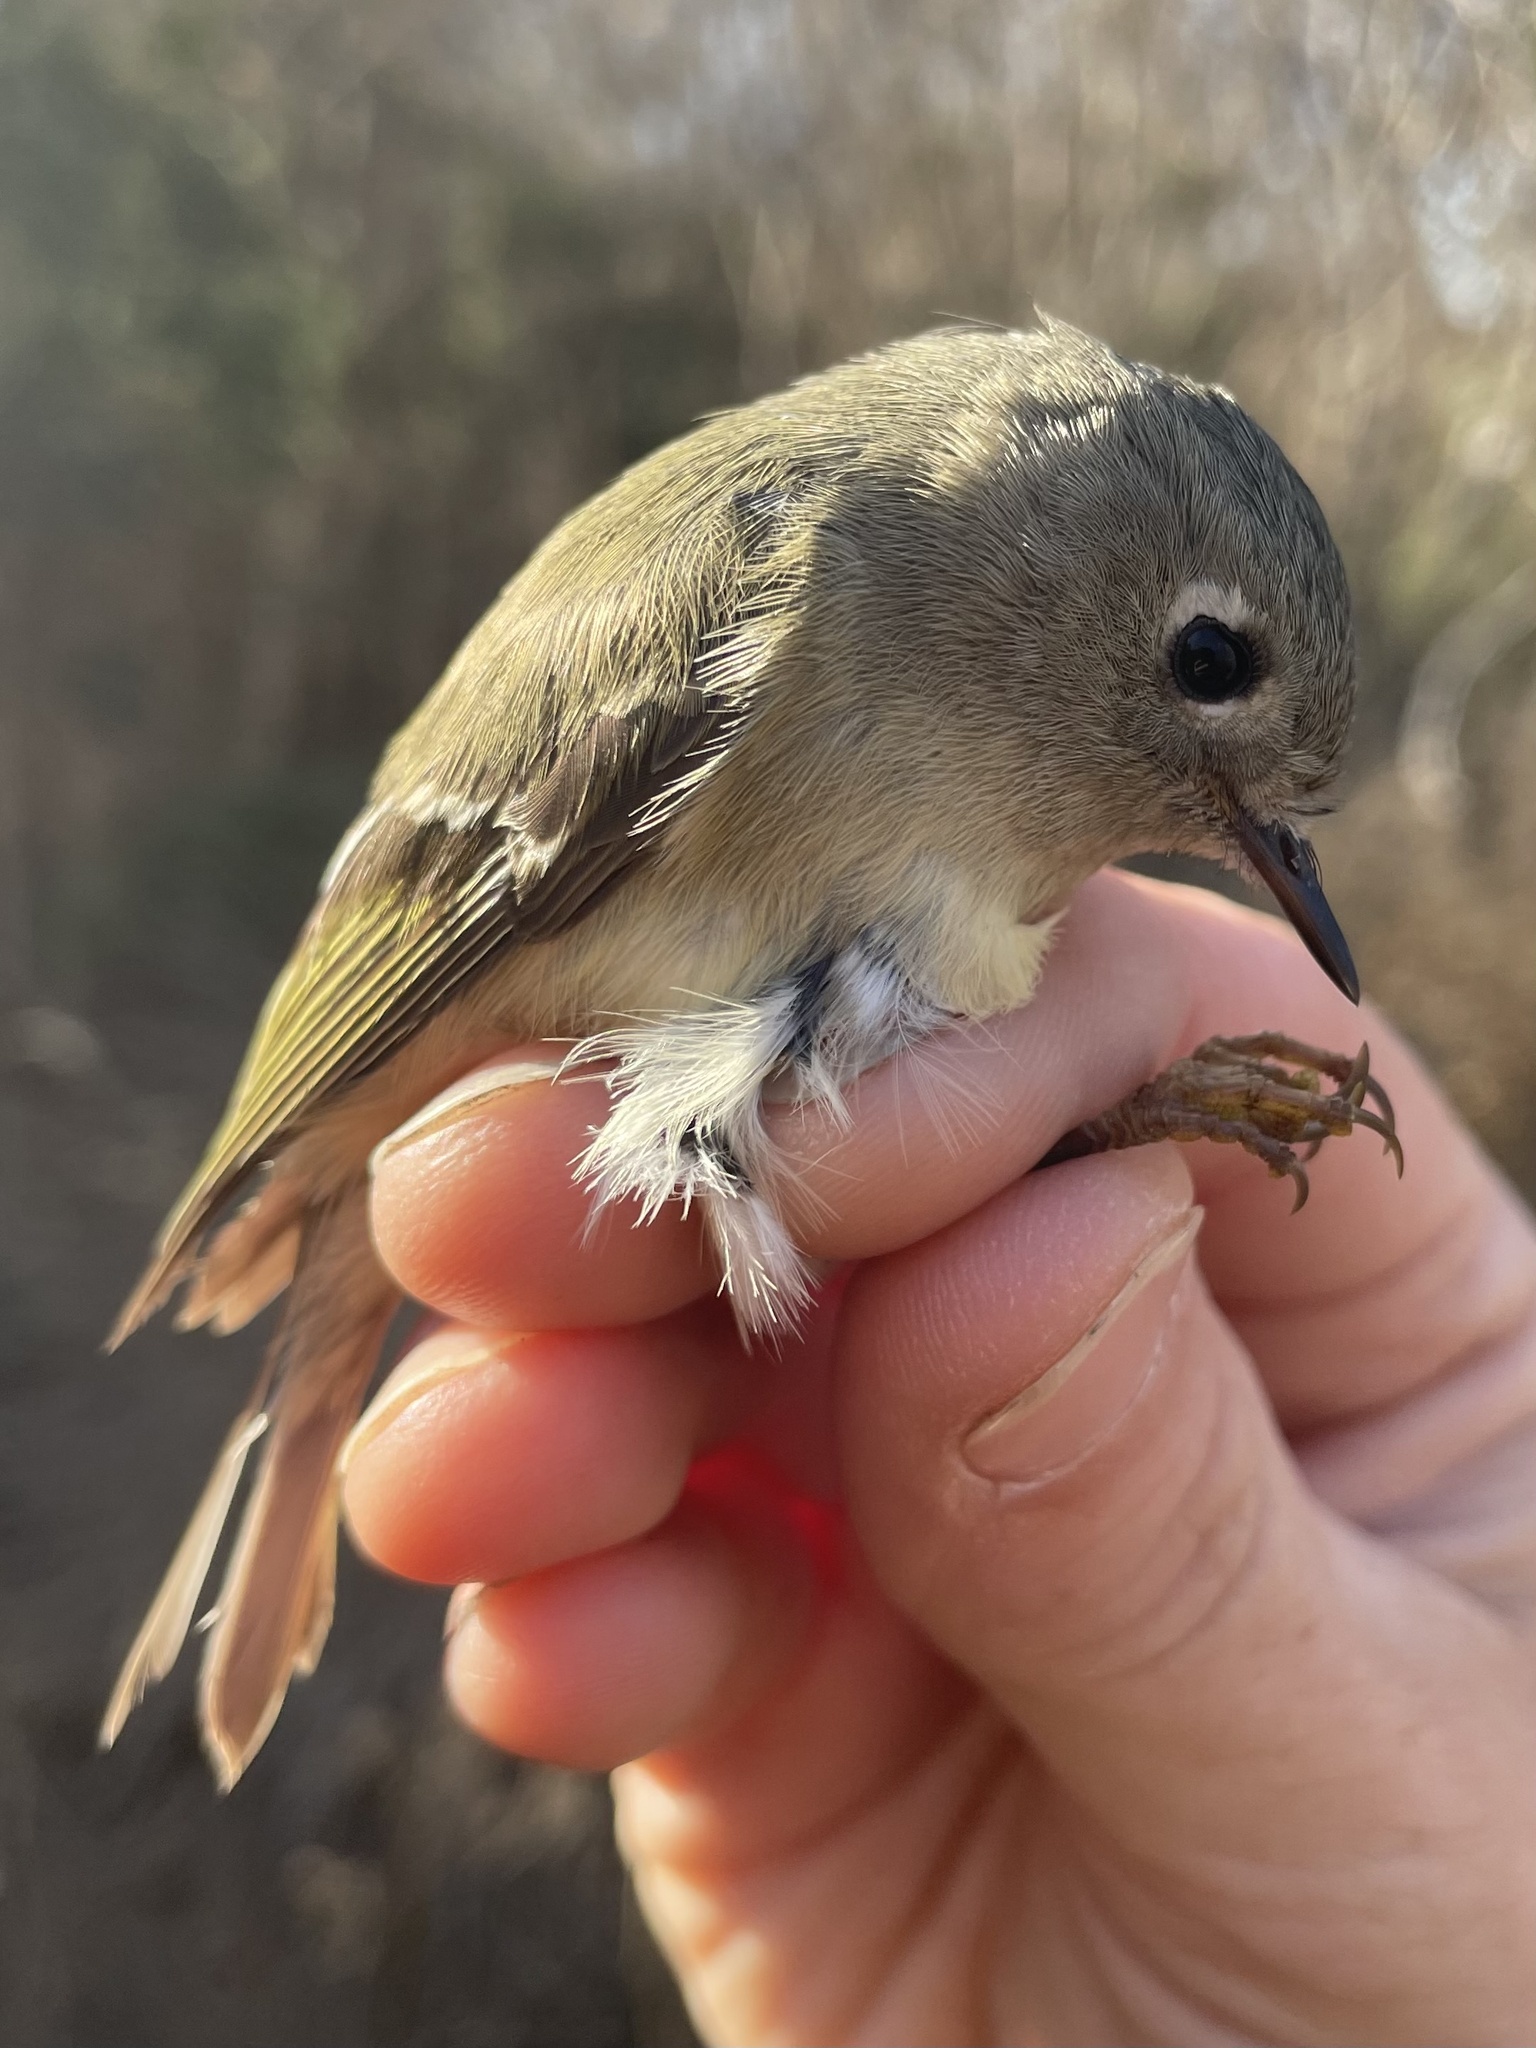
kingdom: Animalia
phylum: Chordata
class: Aves
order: Passeriformes
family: Regulidae
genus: Regulus
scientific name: Regulus calendula
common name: Ruby-crowned kinglet
